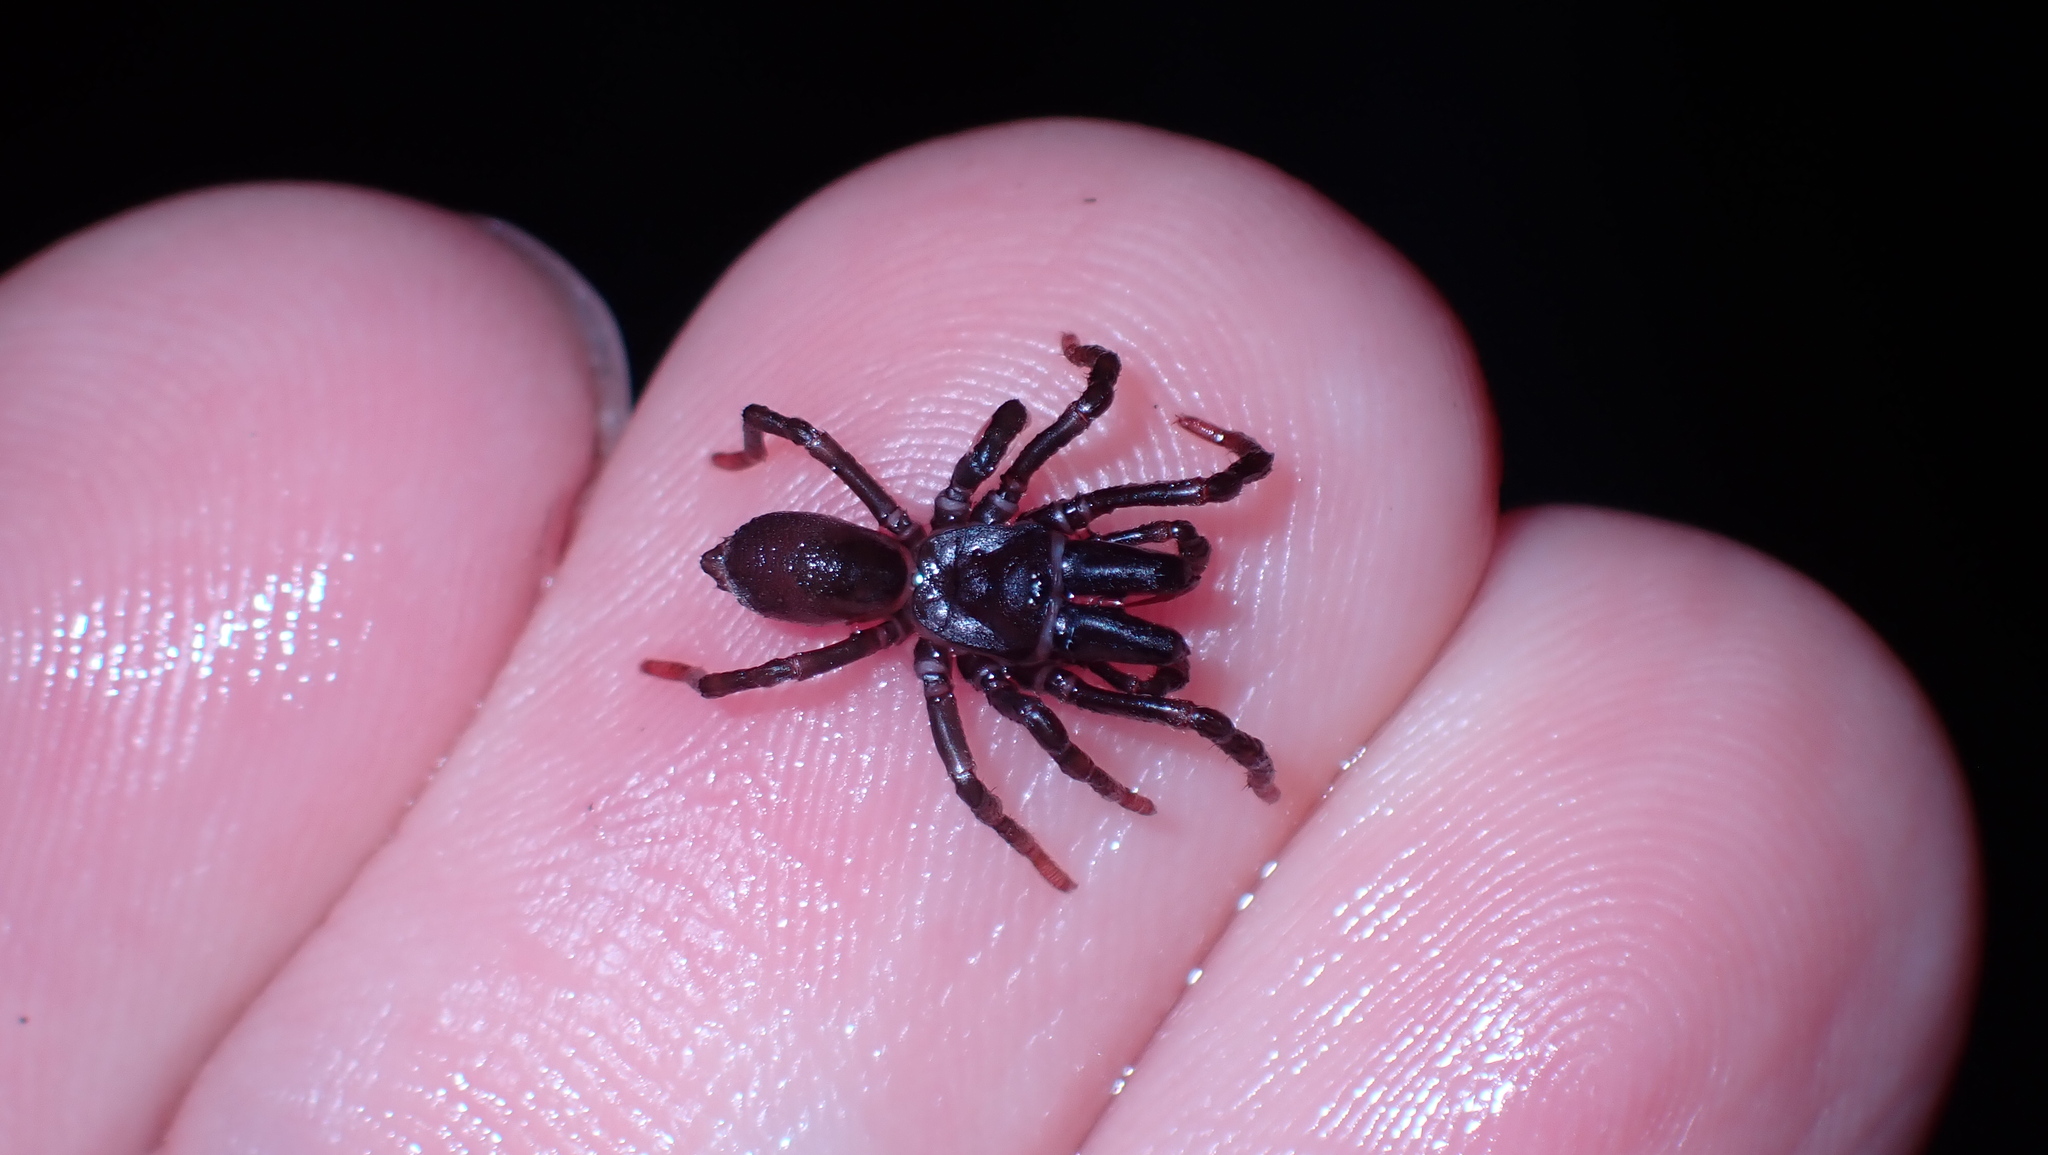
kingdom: Animalia
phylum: Arthropoda
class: Arachnida
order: Araneae
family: Atypidae
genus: Atypus
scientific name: Atypus affinis
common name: Purse web spider
